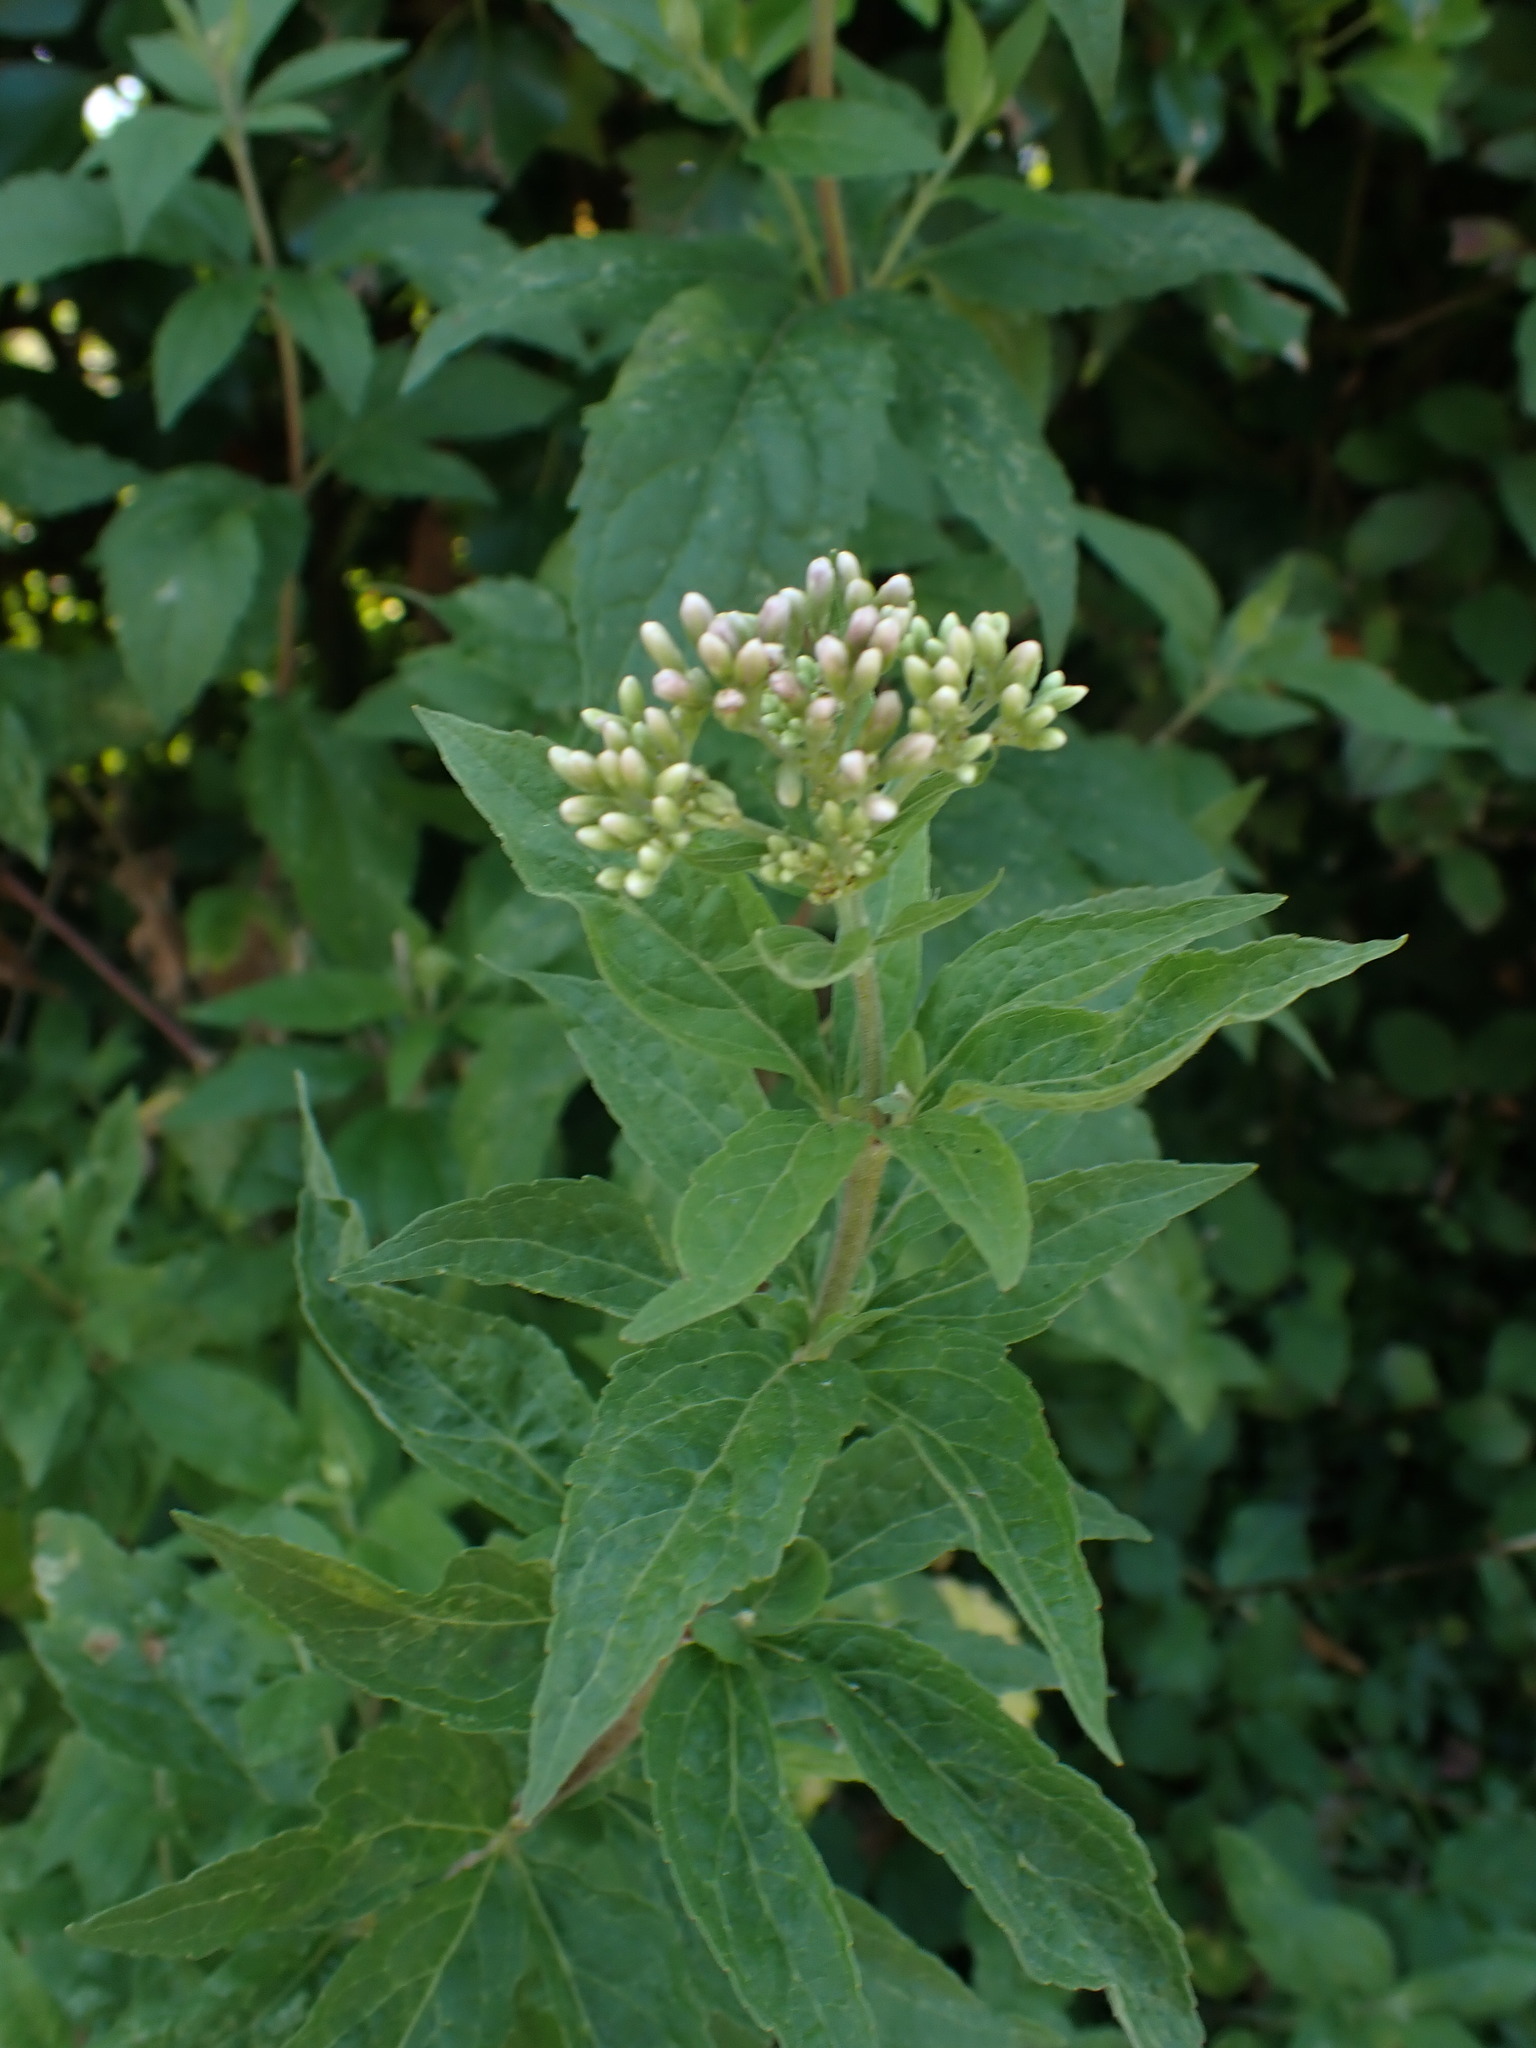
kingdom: Plantae
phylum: Tracheophyta
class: Magnoliopsida
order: Asterales
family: Asteraceae
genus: Eupatorium
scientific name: Eupatorium cannabinum
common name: Hemp-agrimony
